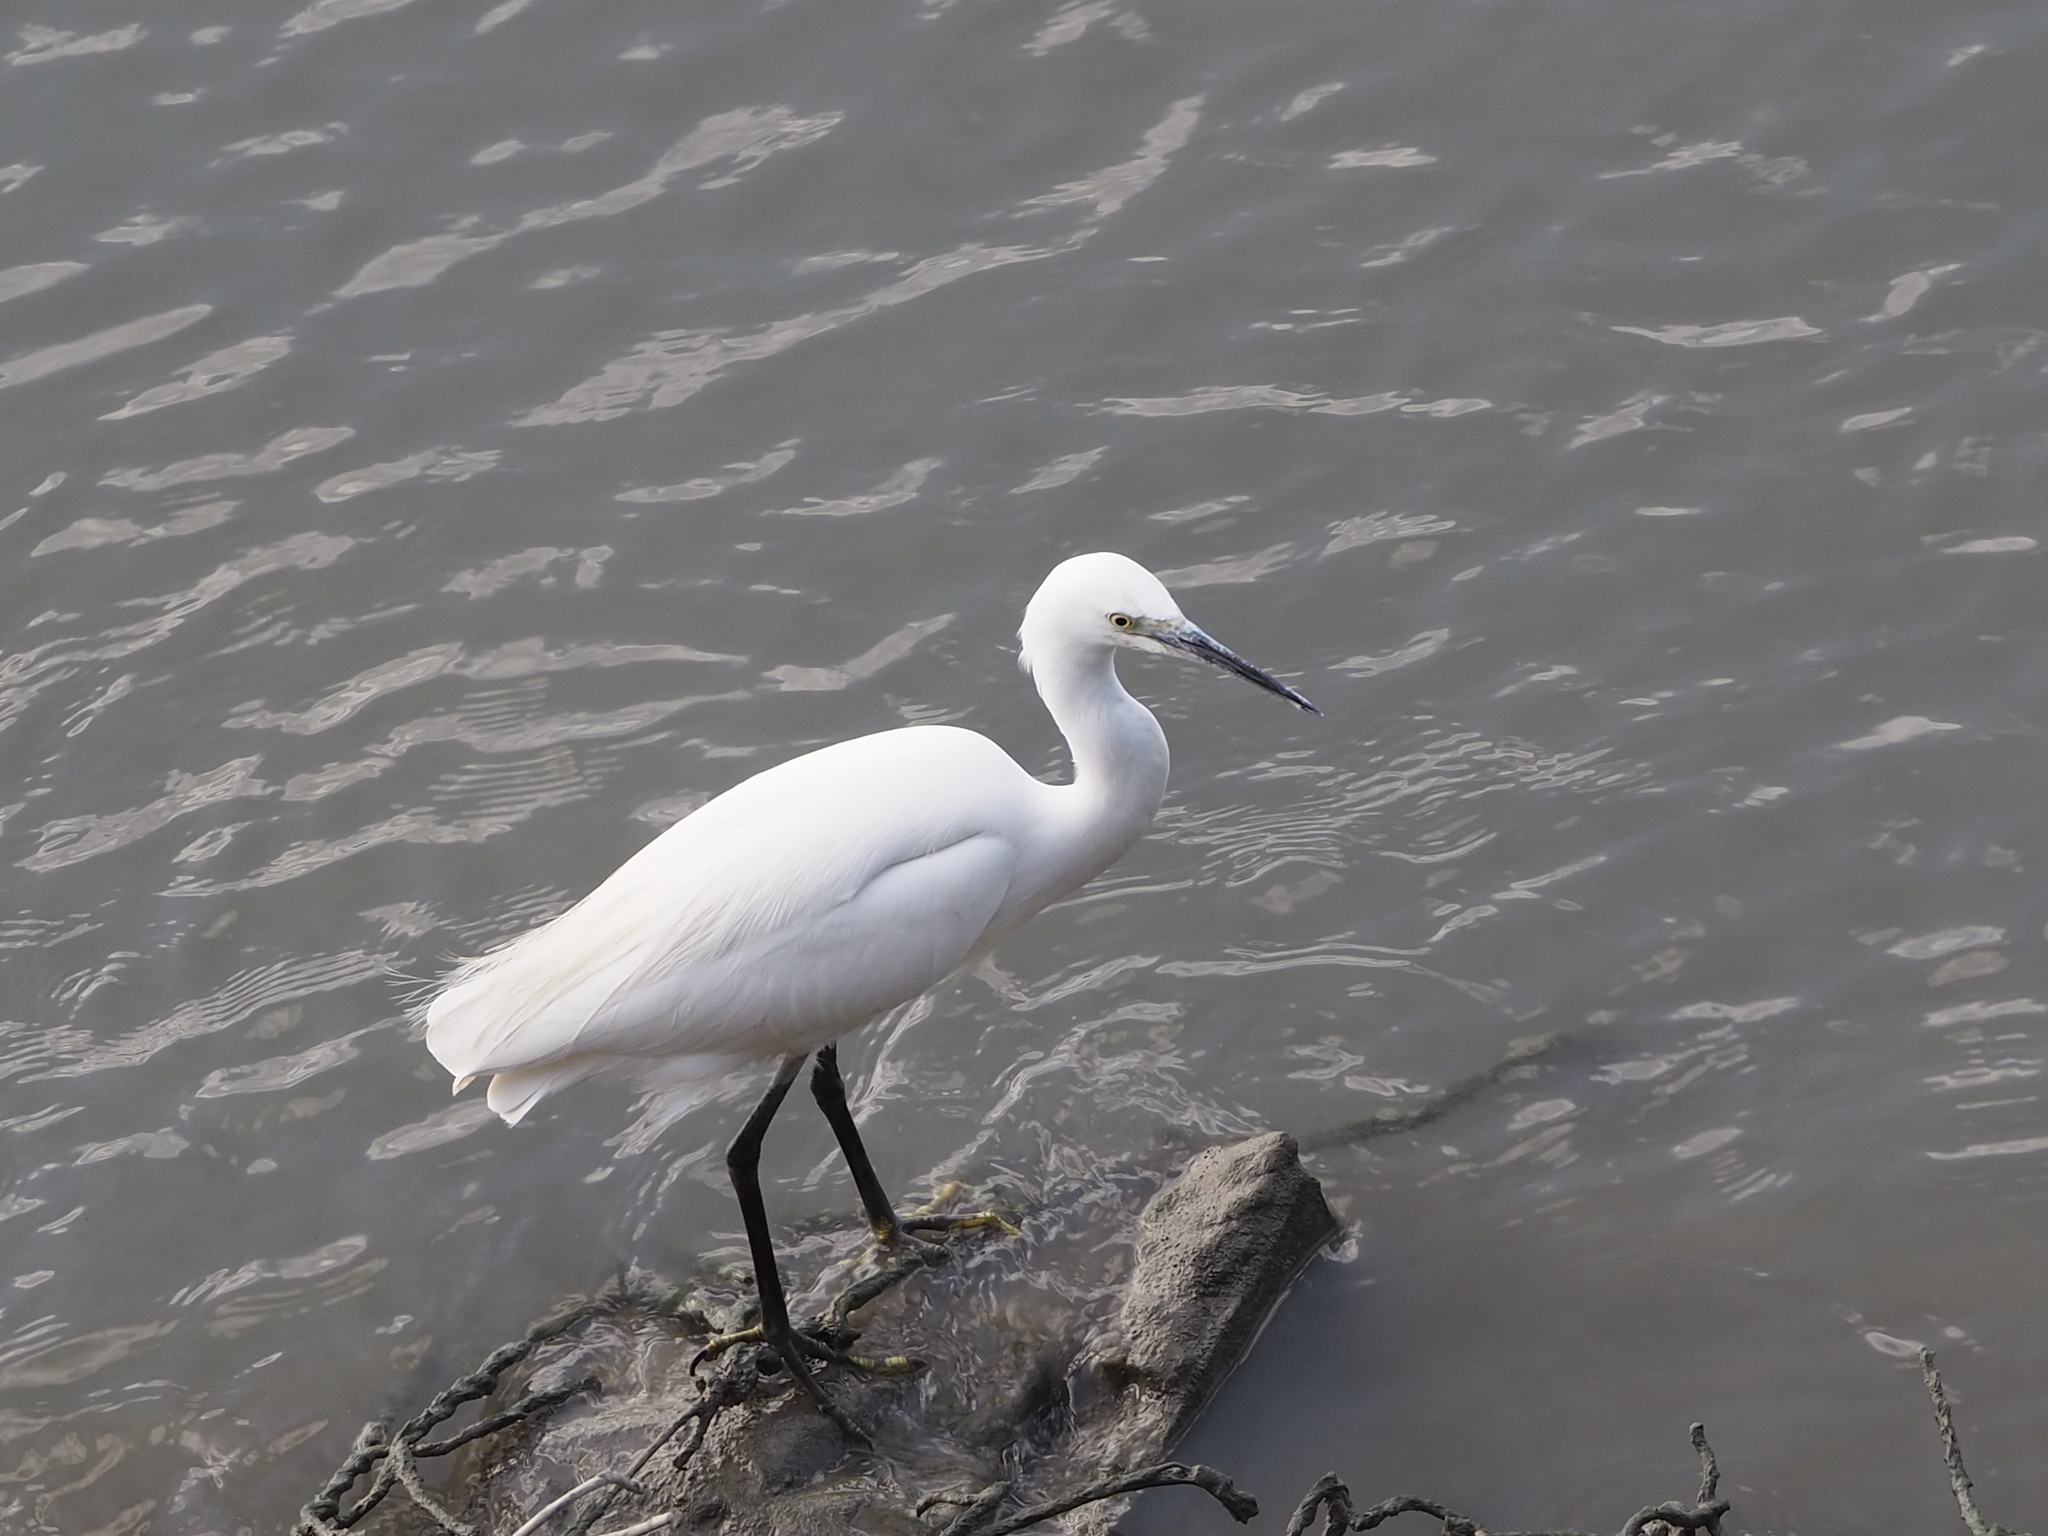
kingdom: Animalia
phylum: Chordata
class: Aves
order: Pelecaniformes
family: Ardeidae
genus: Egretta
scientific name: Egretta garzetta
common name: Little egret
